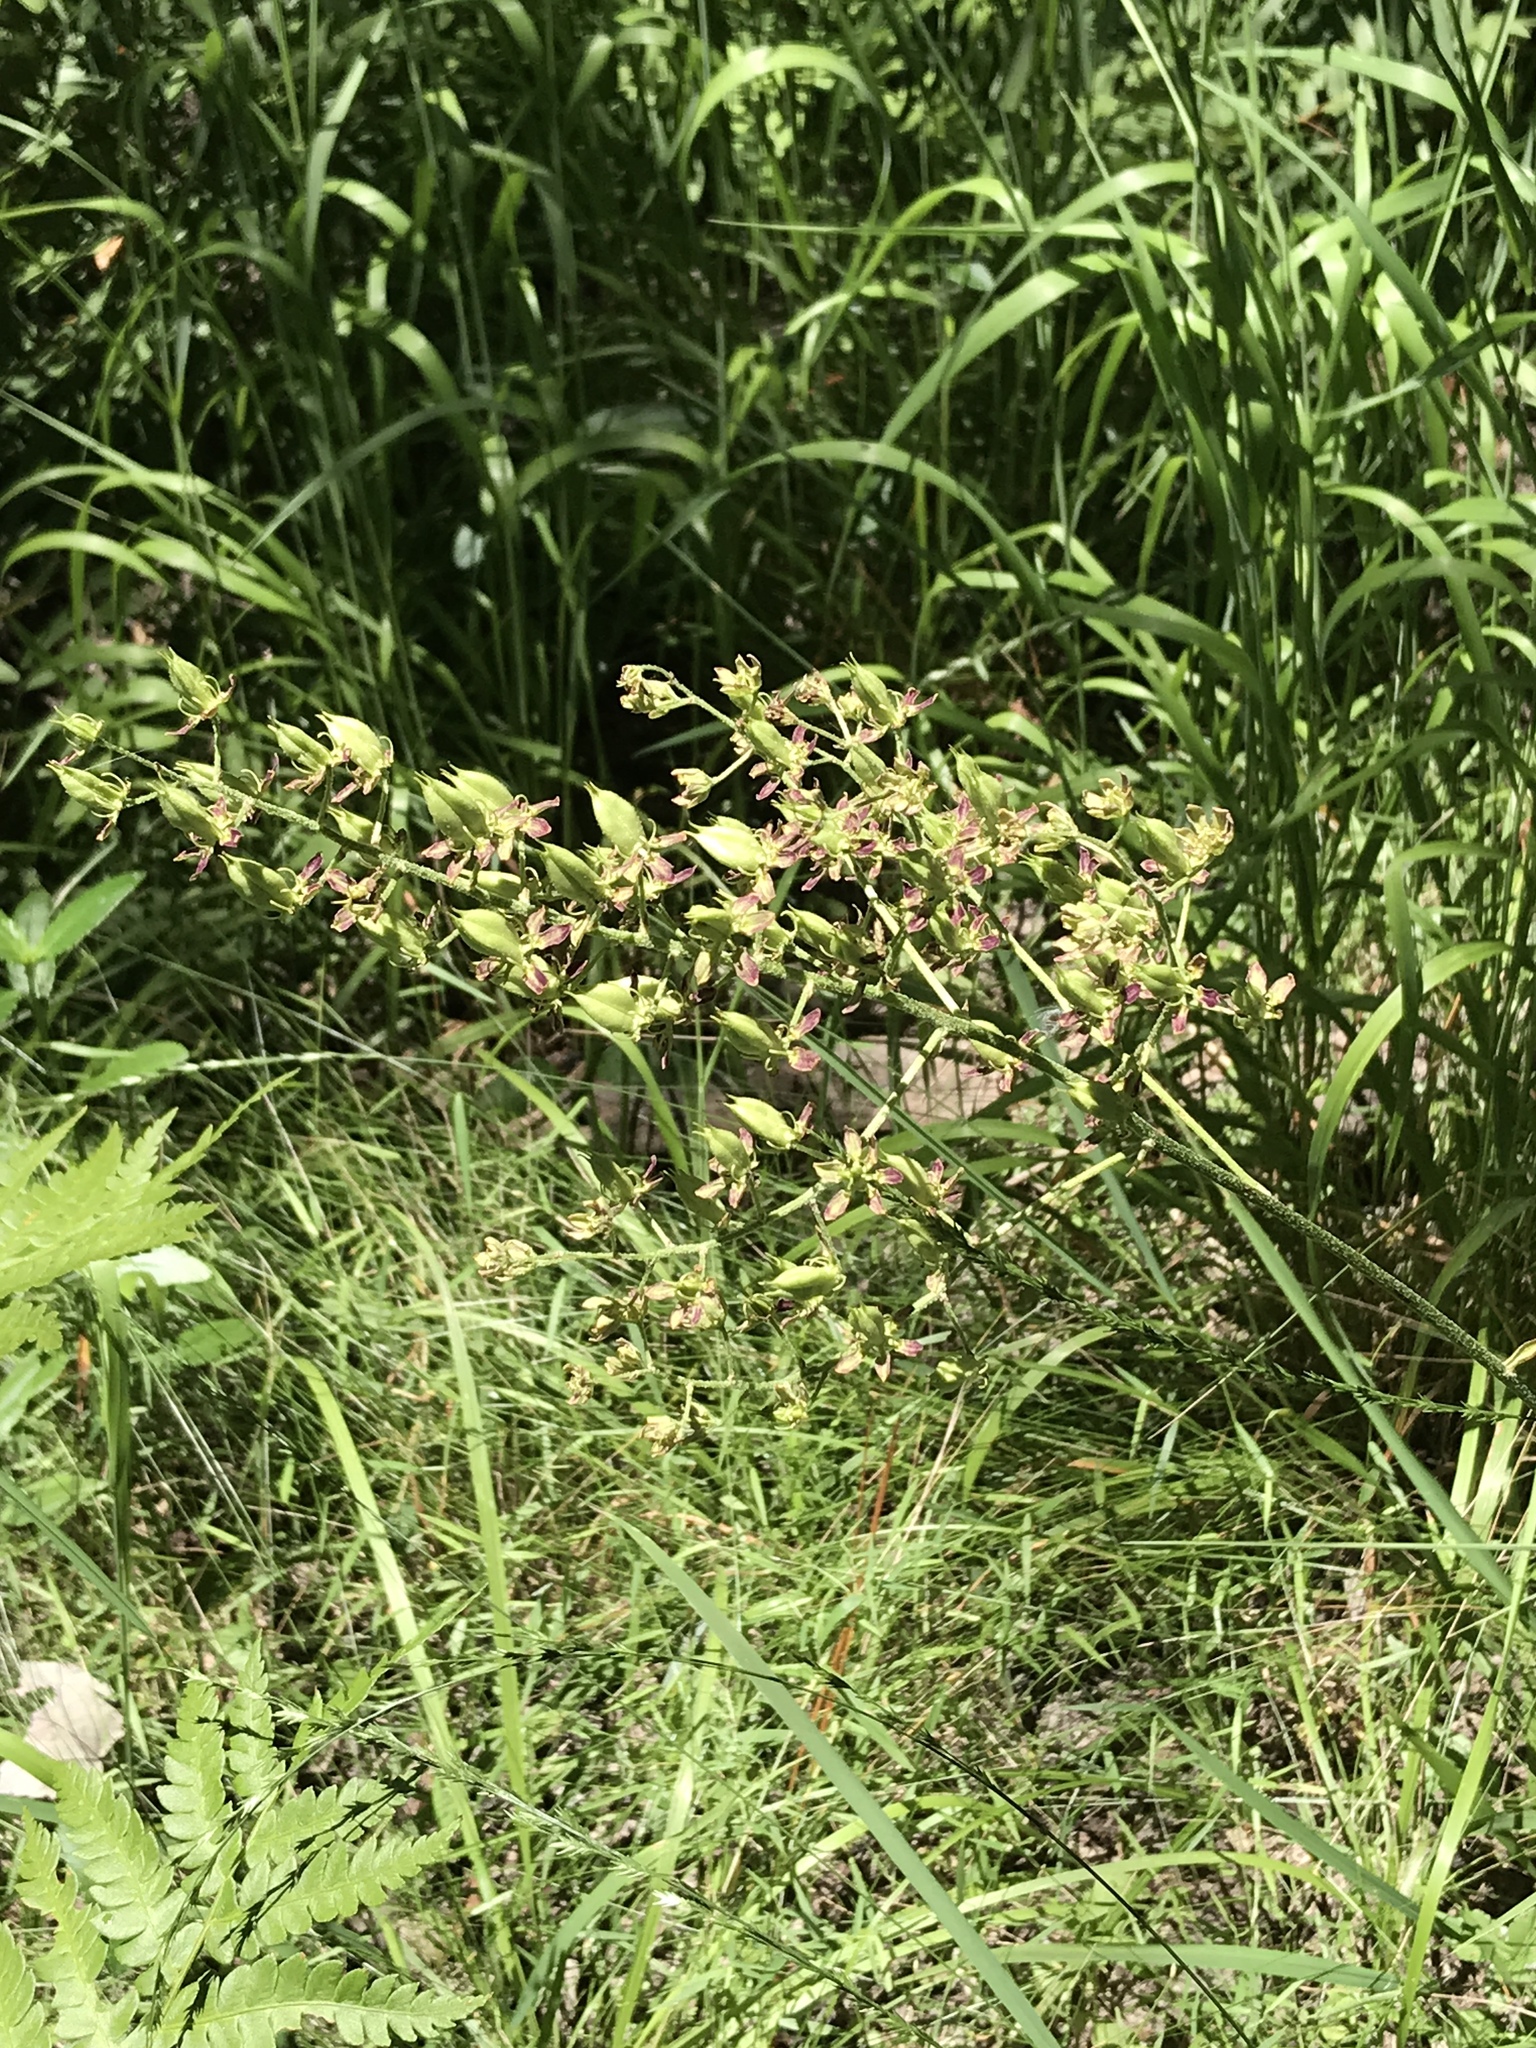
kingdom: Plantae
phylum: Tracheophyta
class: Liliopsida
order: Liliales
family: Melanthiaceae
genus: Melanthium
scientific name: Melanthium virginicum
